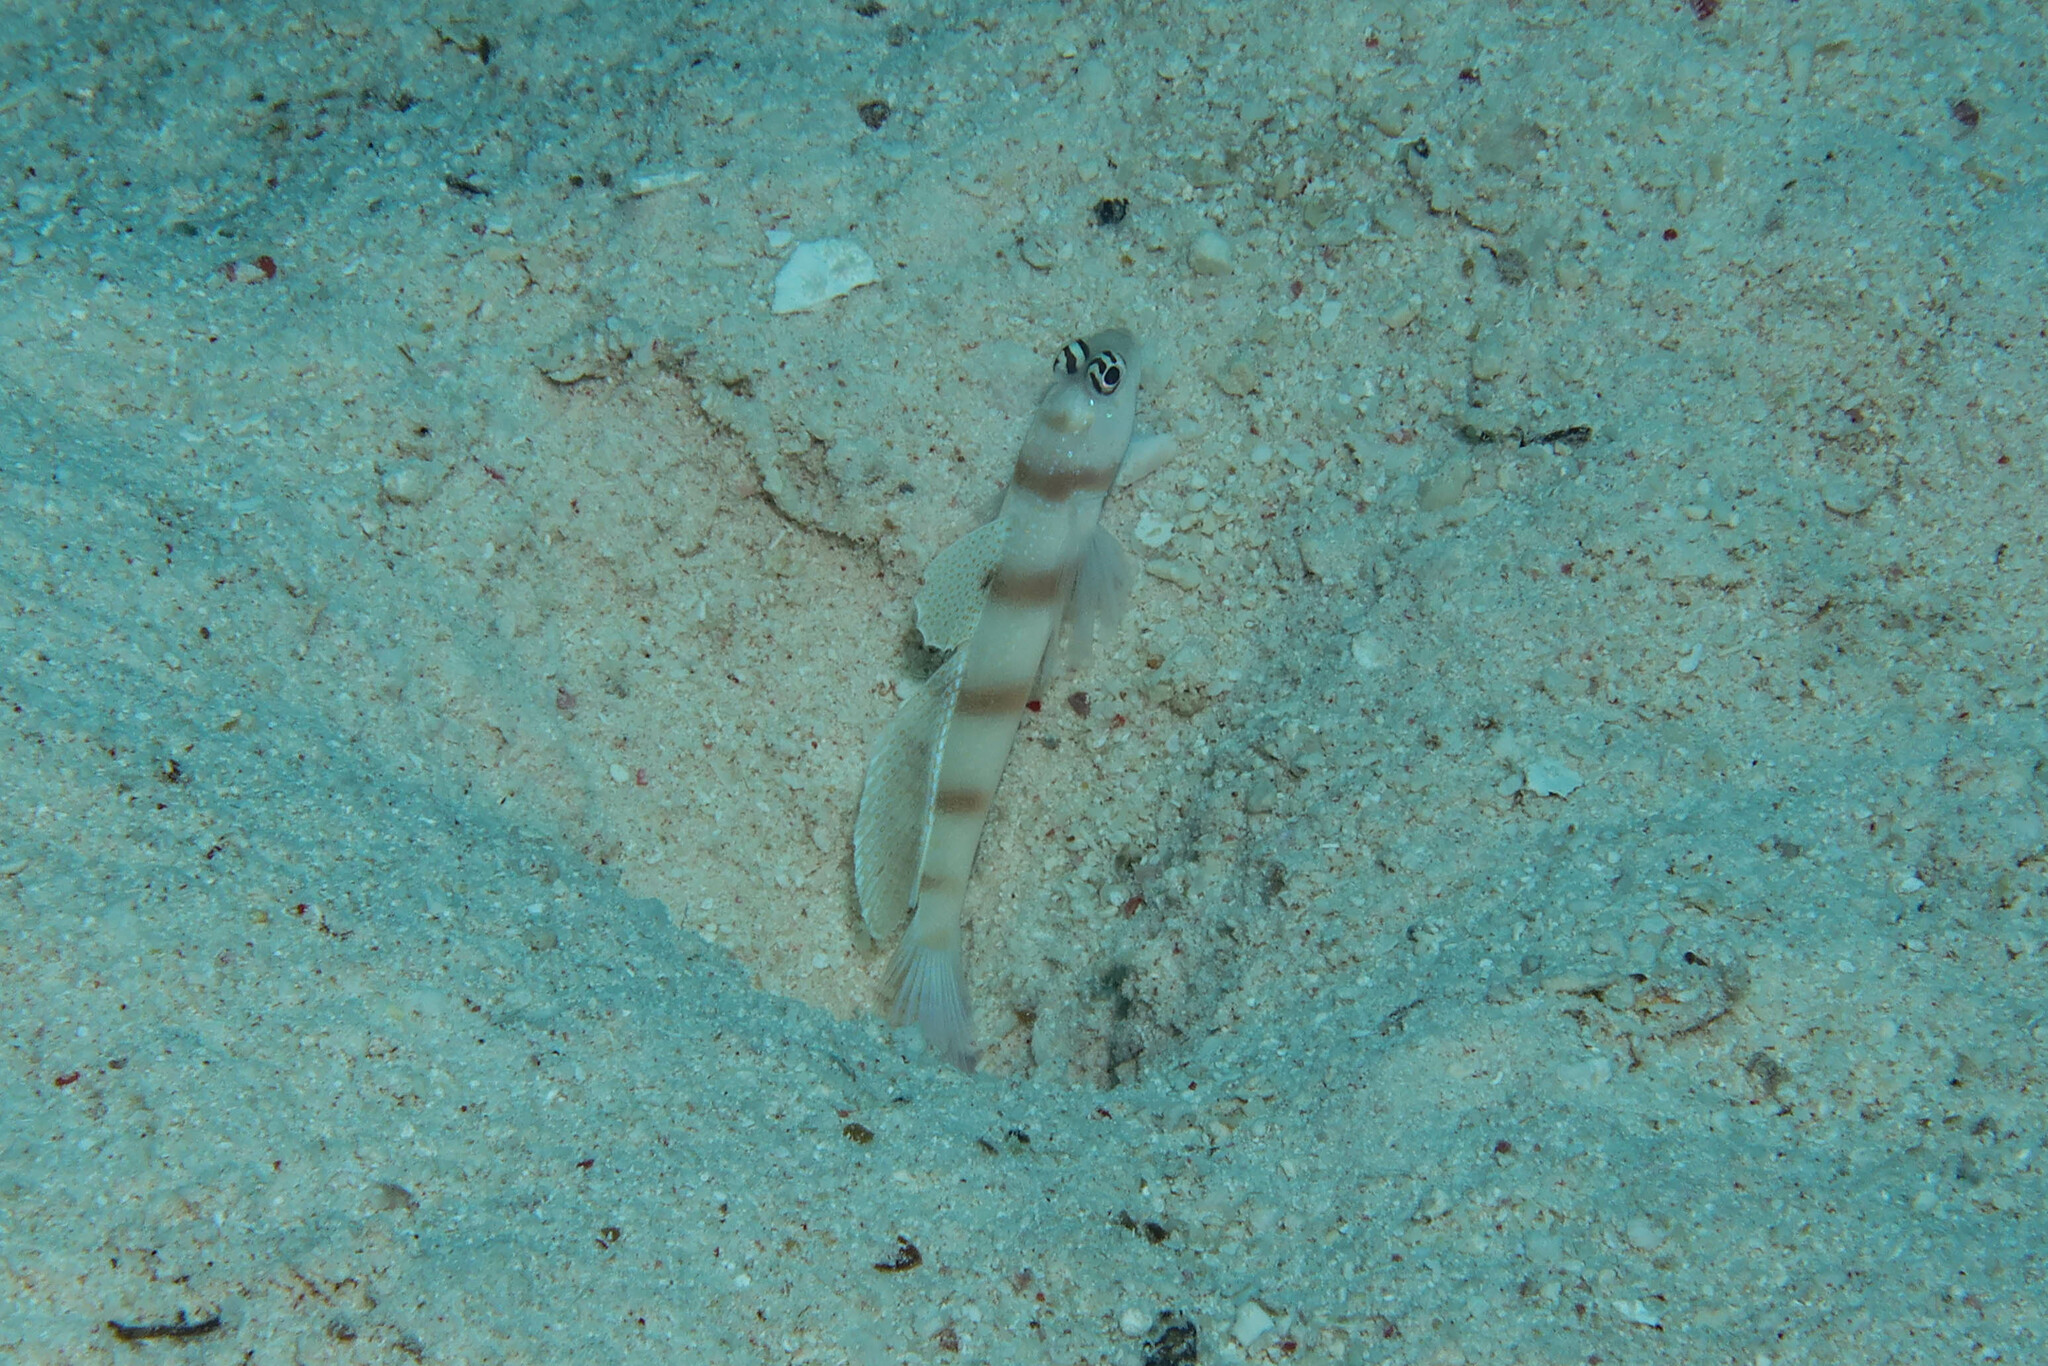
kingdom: Animalia
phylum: Chordata
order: Perciformes
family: Gobiidae
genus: Amblyeleotris
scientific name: Amblyeleotris steinitzi
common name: Steinitz' prawn-goby
